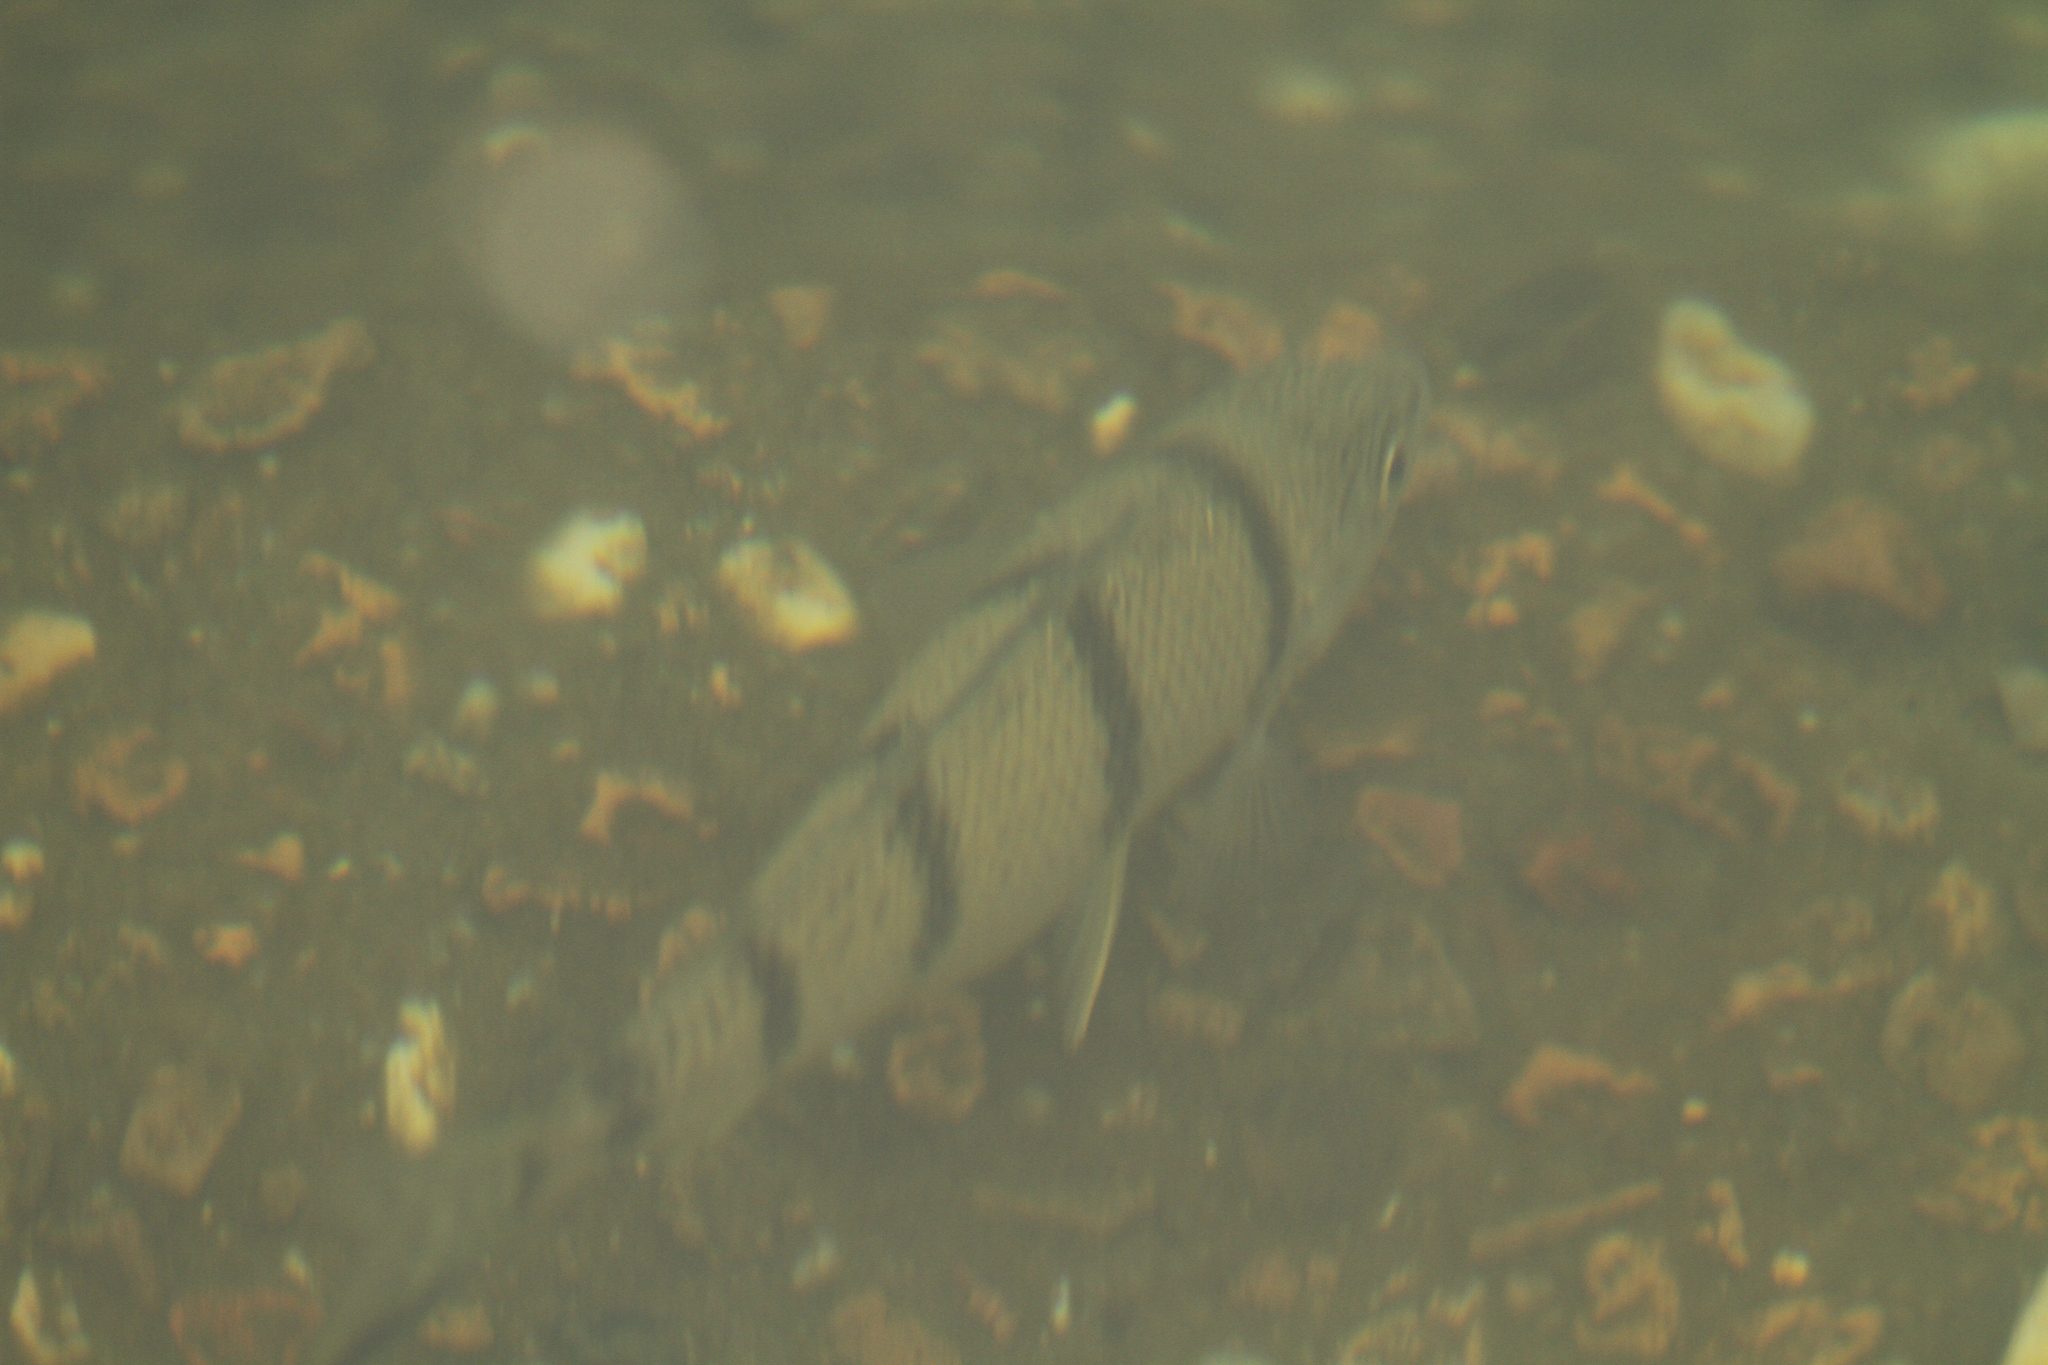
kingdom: Animalia
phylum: Chordata
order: Perciformes
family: Terapontidae
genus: Amniataba
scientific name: Amniataba percoides
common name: Banded grunter
